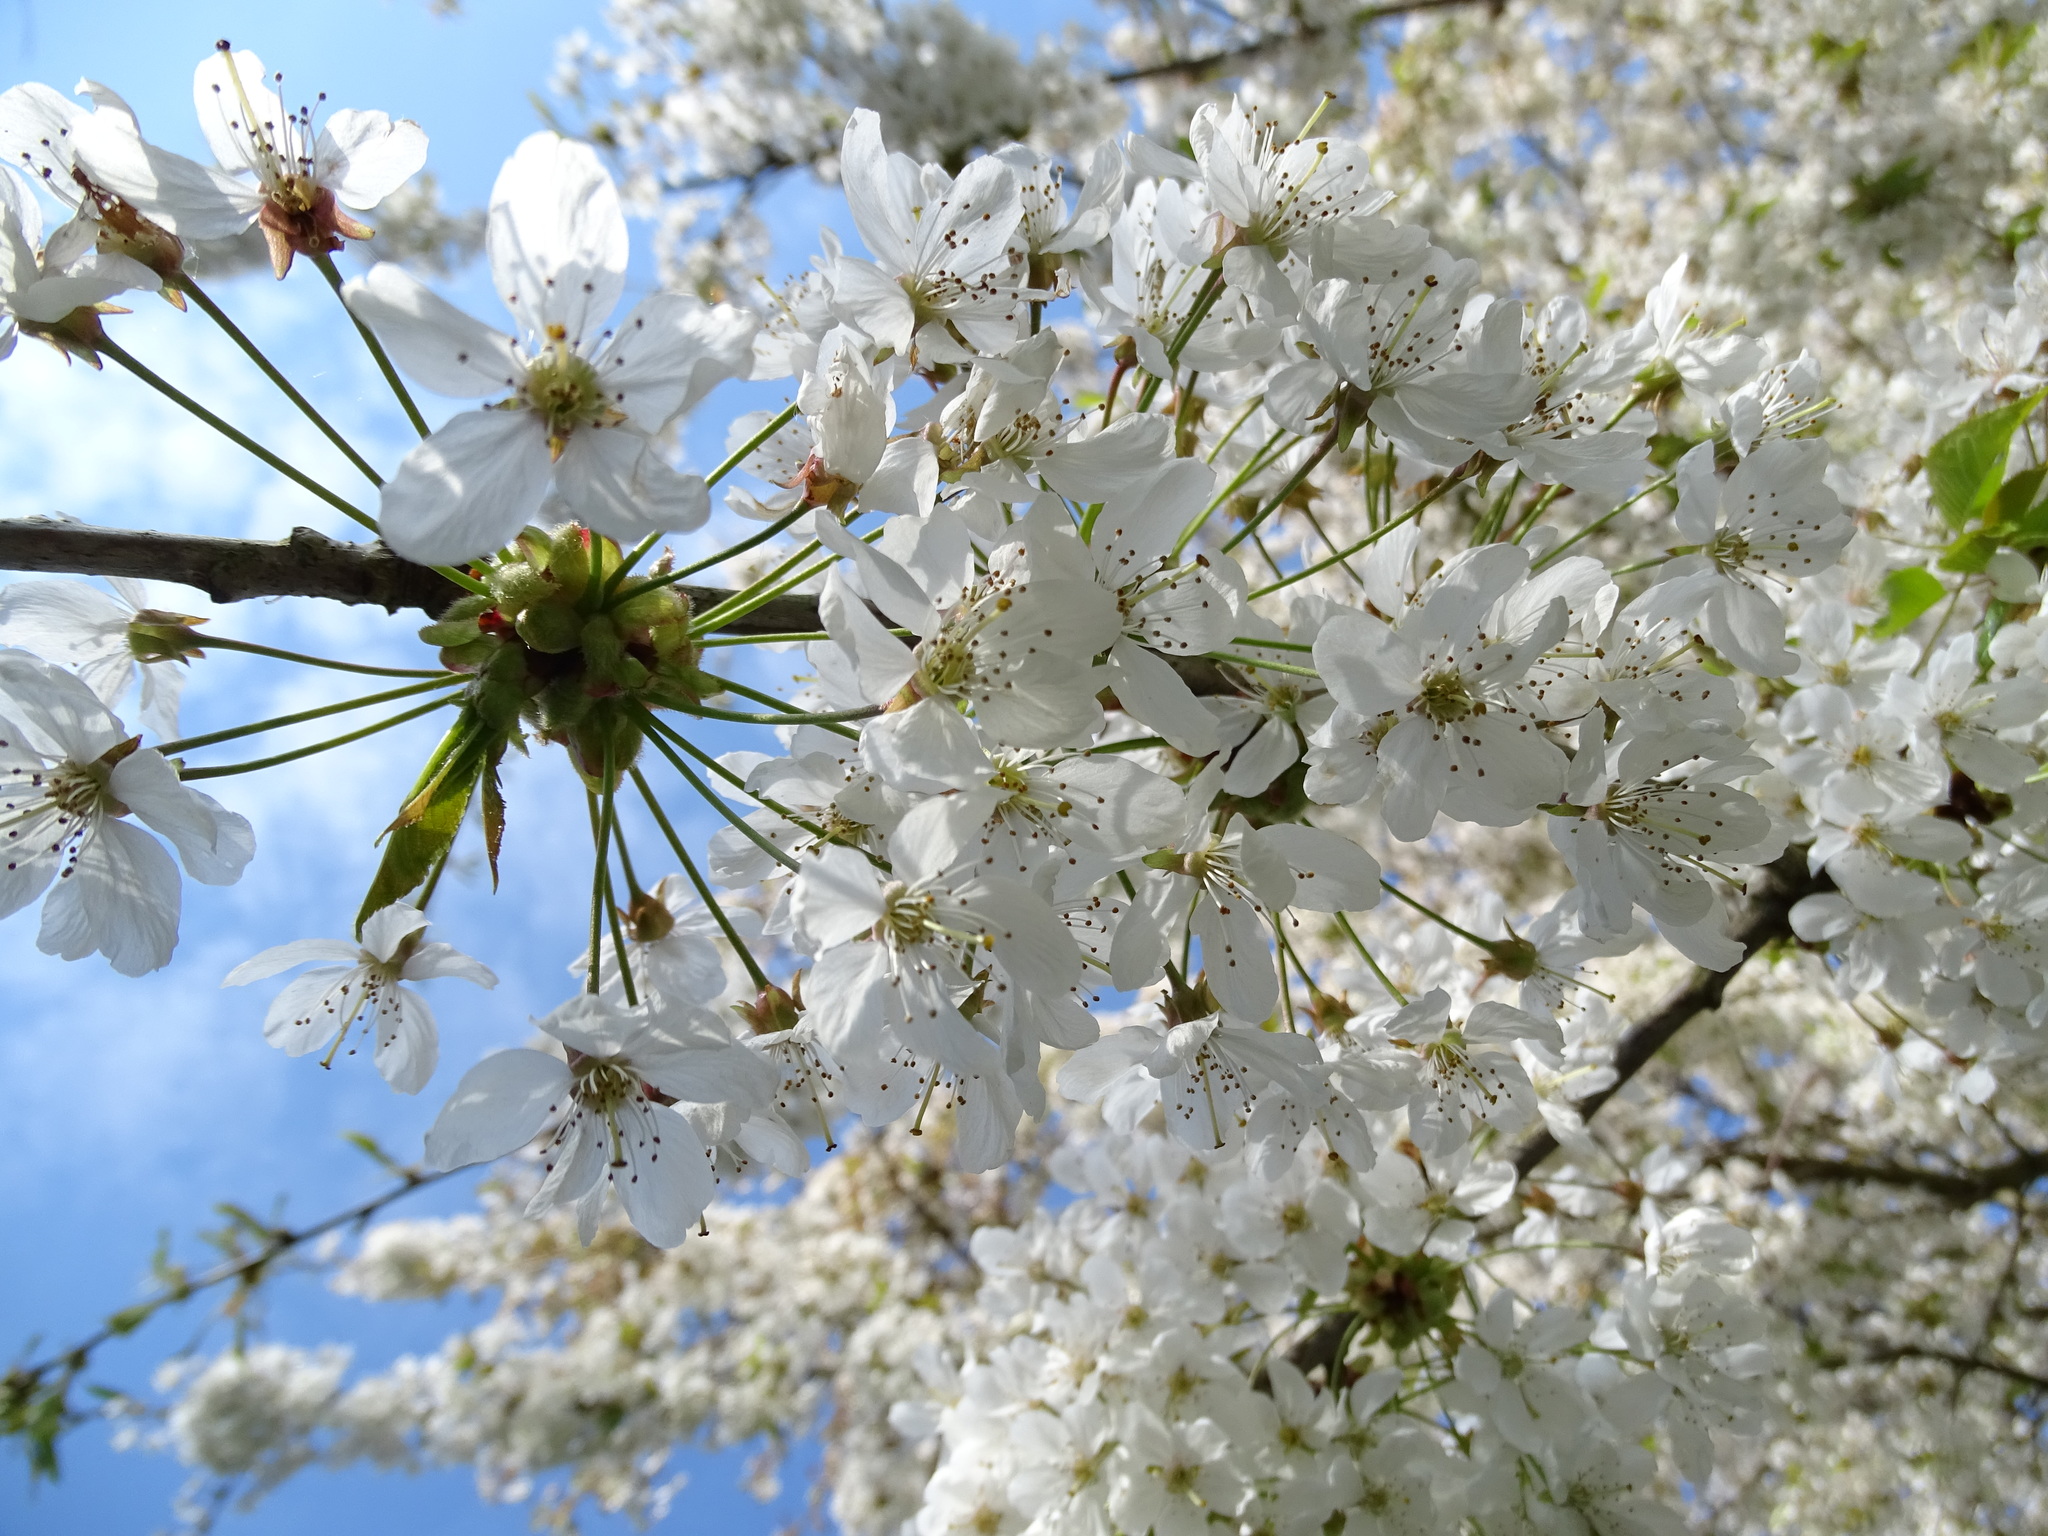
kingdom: Plantae
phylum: Tracheophyta
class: Magnoliopsida
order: Rosales
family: Rosaceae
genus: Prunus
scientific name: Prunus avium
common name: Sweet cherry
